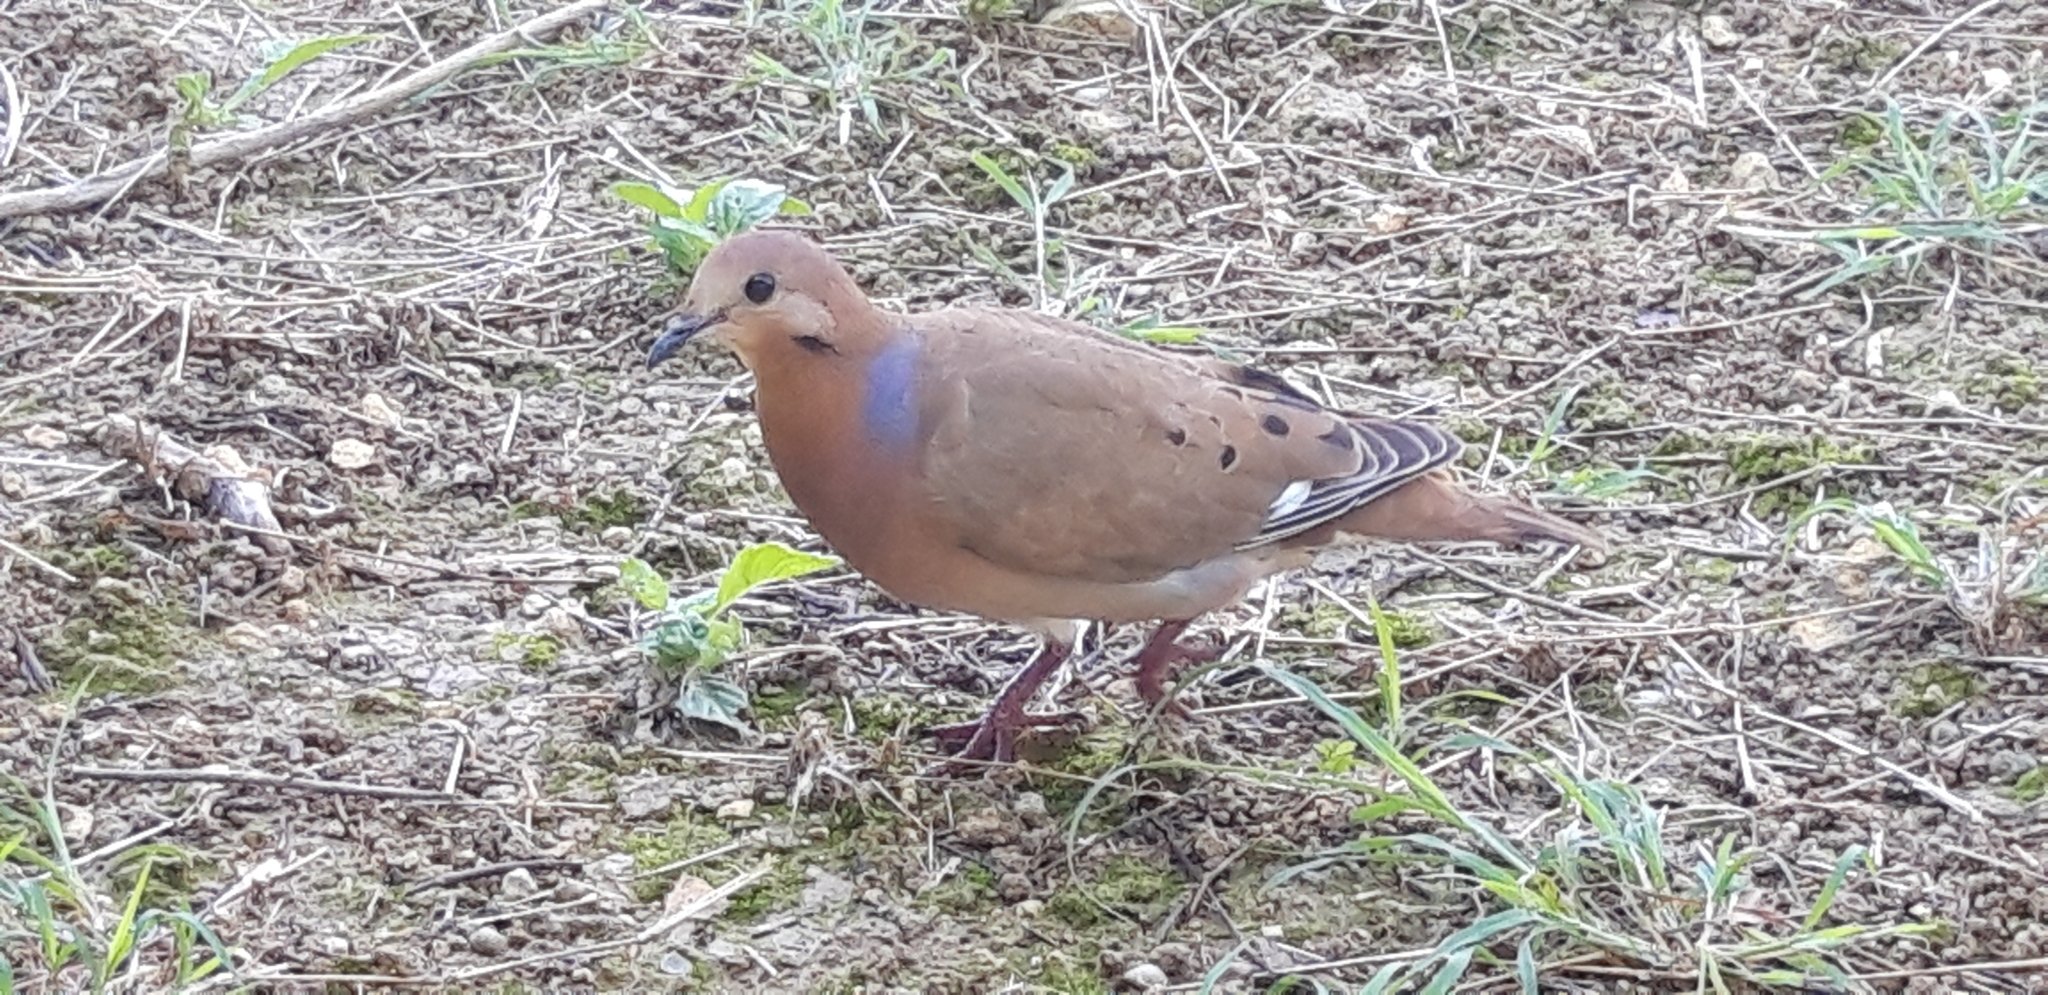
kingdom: Animalia
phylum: Chordata
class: Aves
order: Columbiformes
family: Columbidae
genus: Zenaida
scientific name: Zenaida aurita
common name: Zenaida dove
